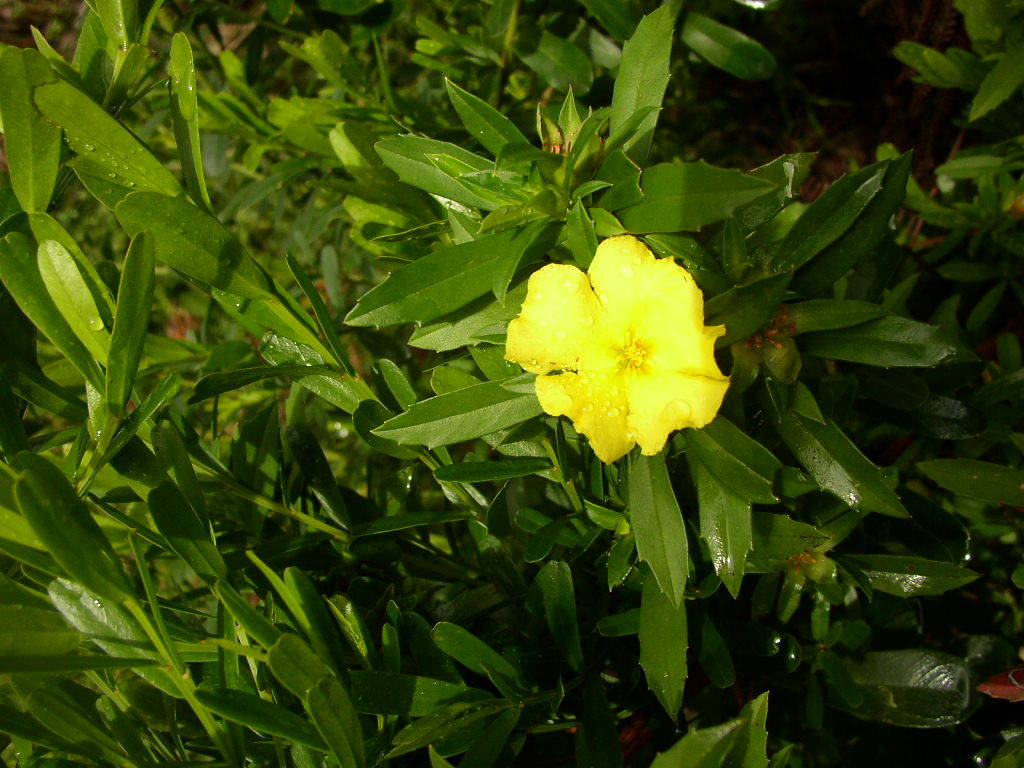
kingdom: Plantae
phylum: Tracheophyta
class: Magnoliopsida
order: Dilleniales
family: Dilleniaceae
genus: Hibbertia
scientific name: Hibbertia cuneiformis
